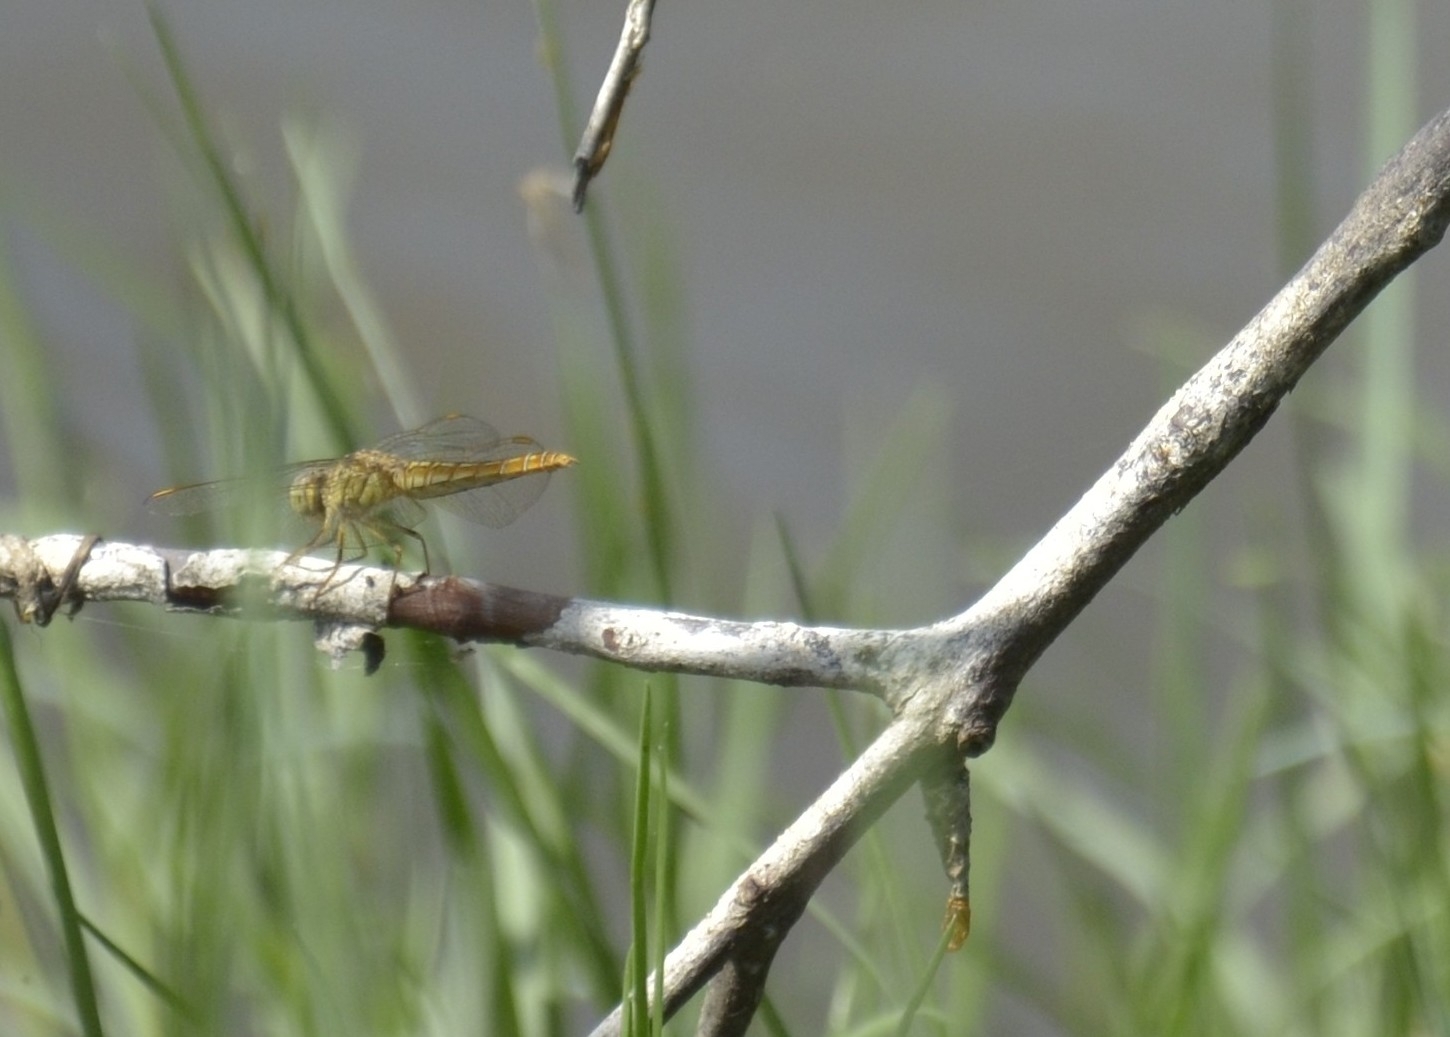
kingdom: Animalia
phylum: Arthropoda
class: Insecta
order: Odonata
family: Libellulidae
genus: Brachythemis
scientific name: Brachythemis contaminata
